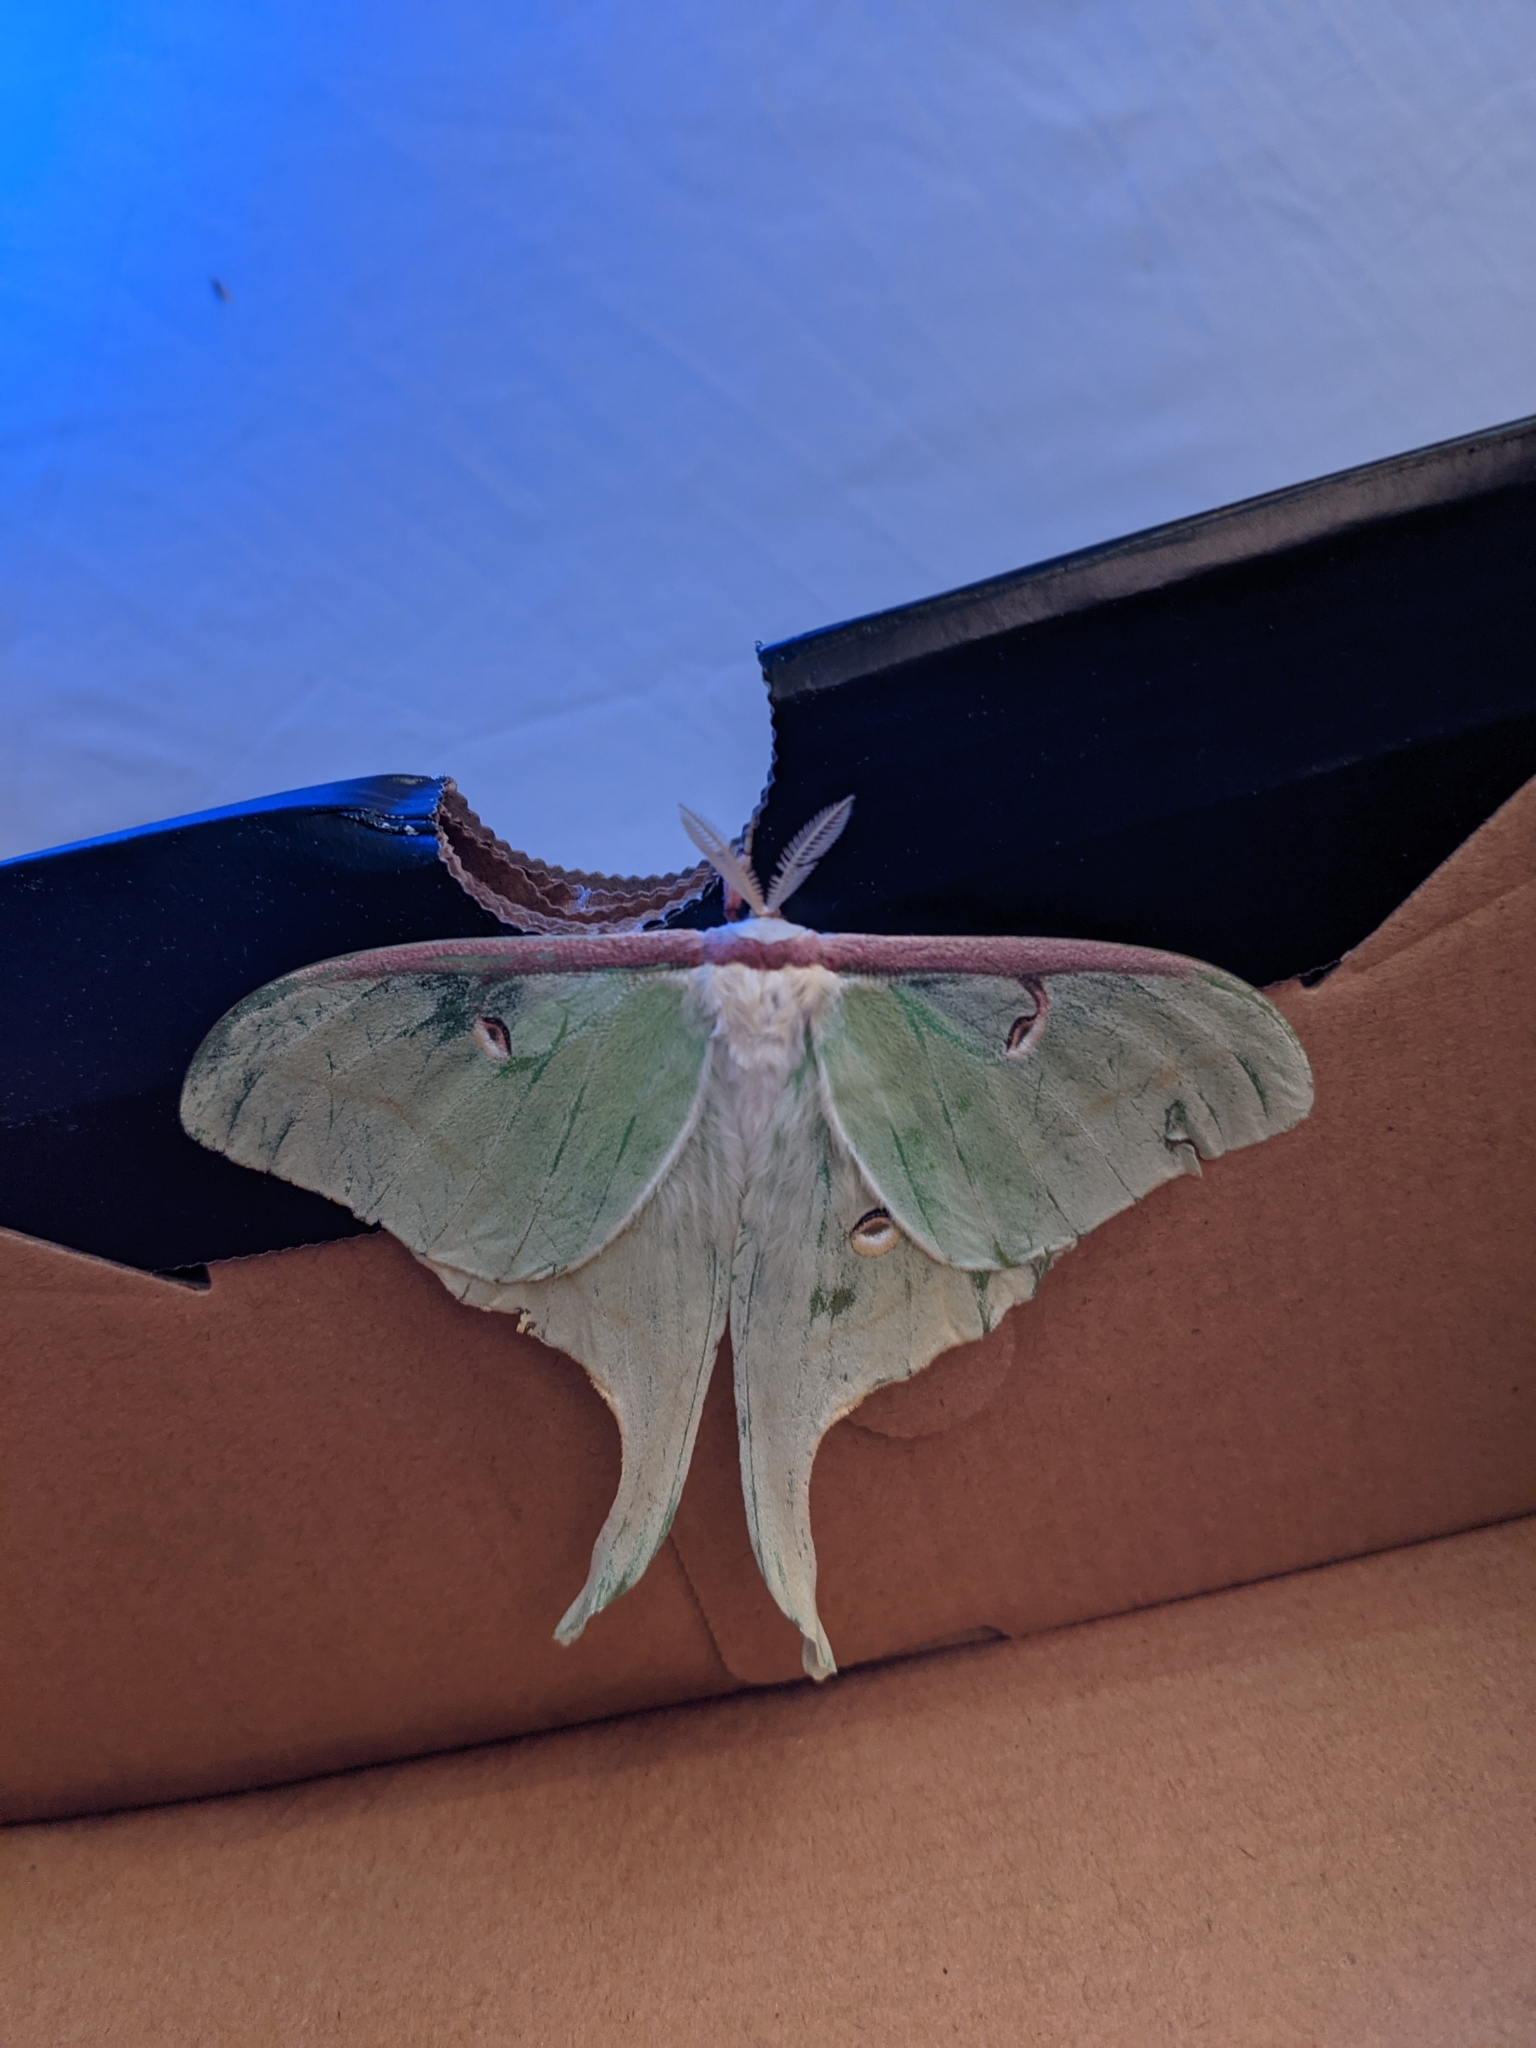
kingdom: Animalia
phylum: Arthropoda
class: Insecta
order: Lepidoptera
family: Saturniidae
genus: Actias
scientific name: Actias luna
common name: Luna moth
